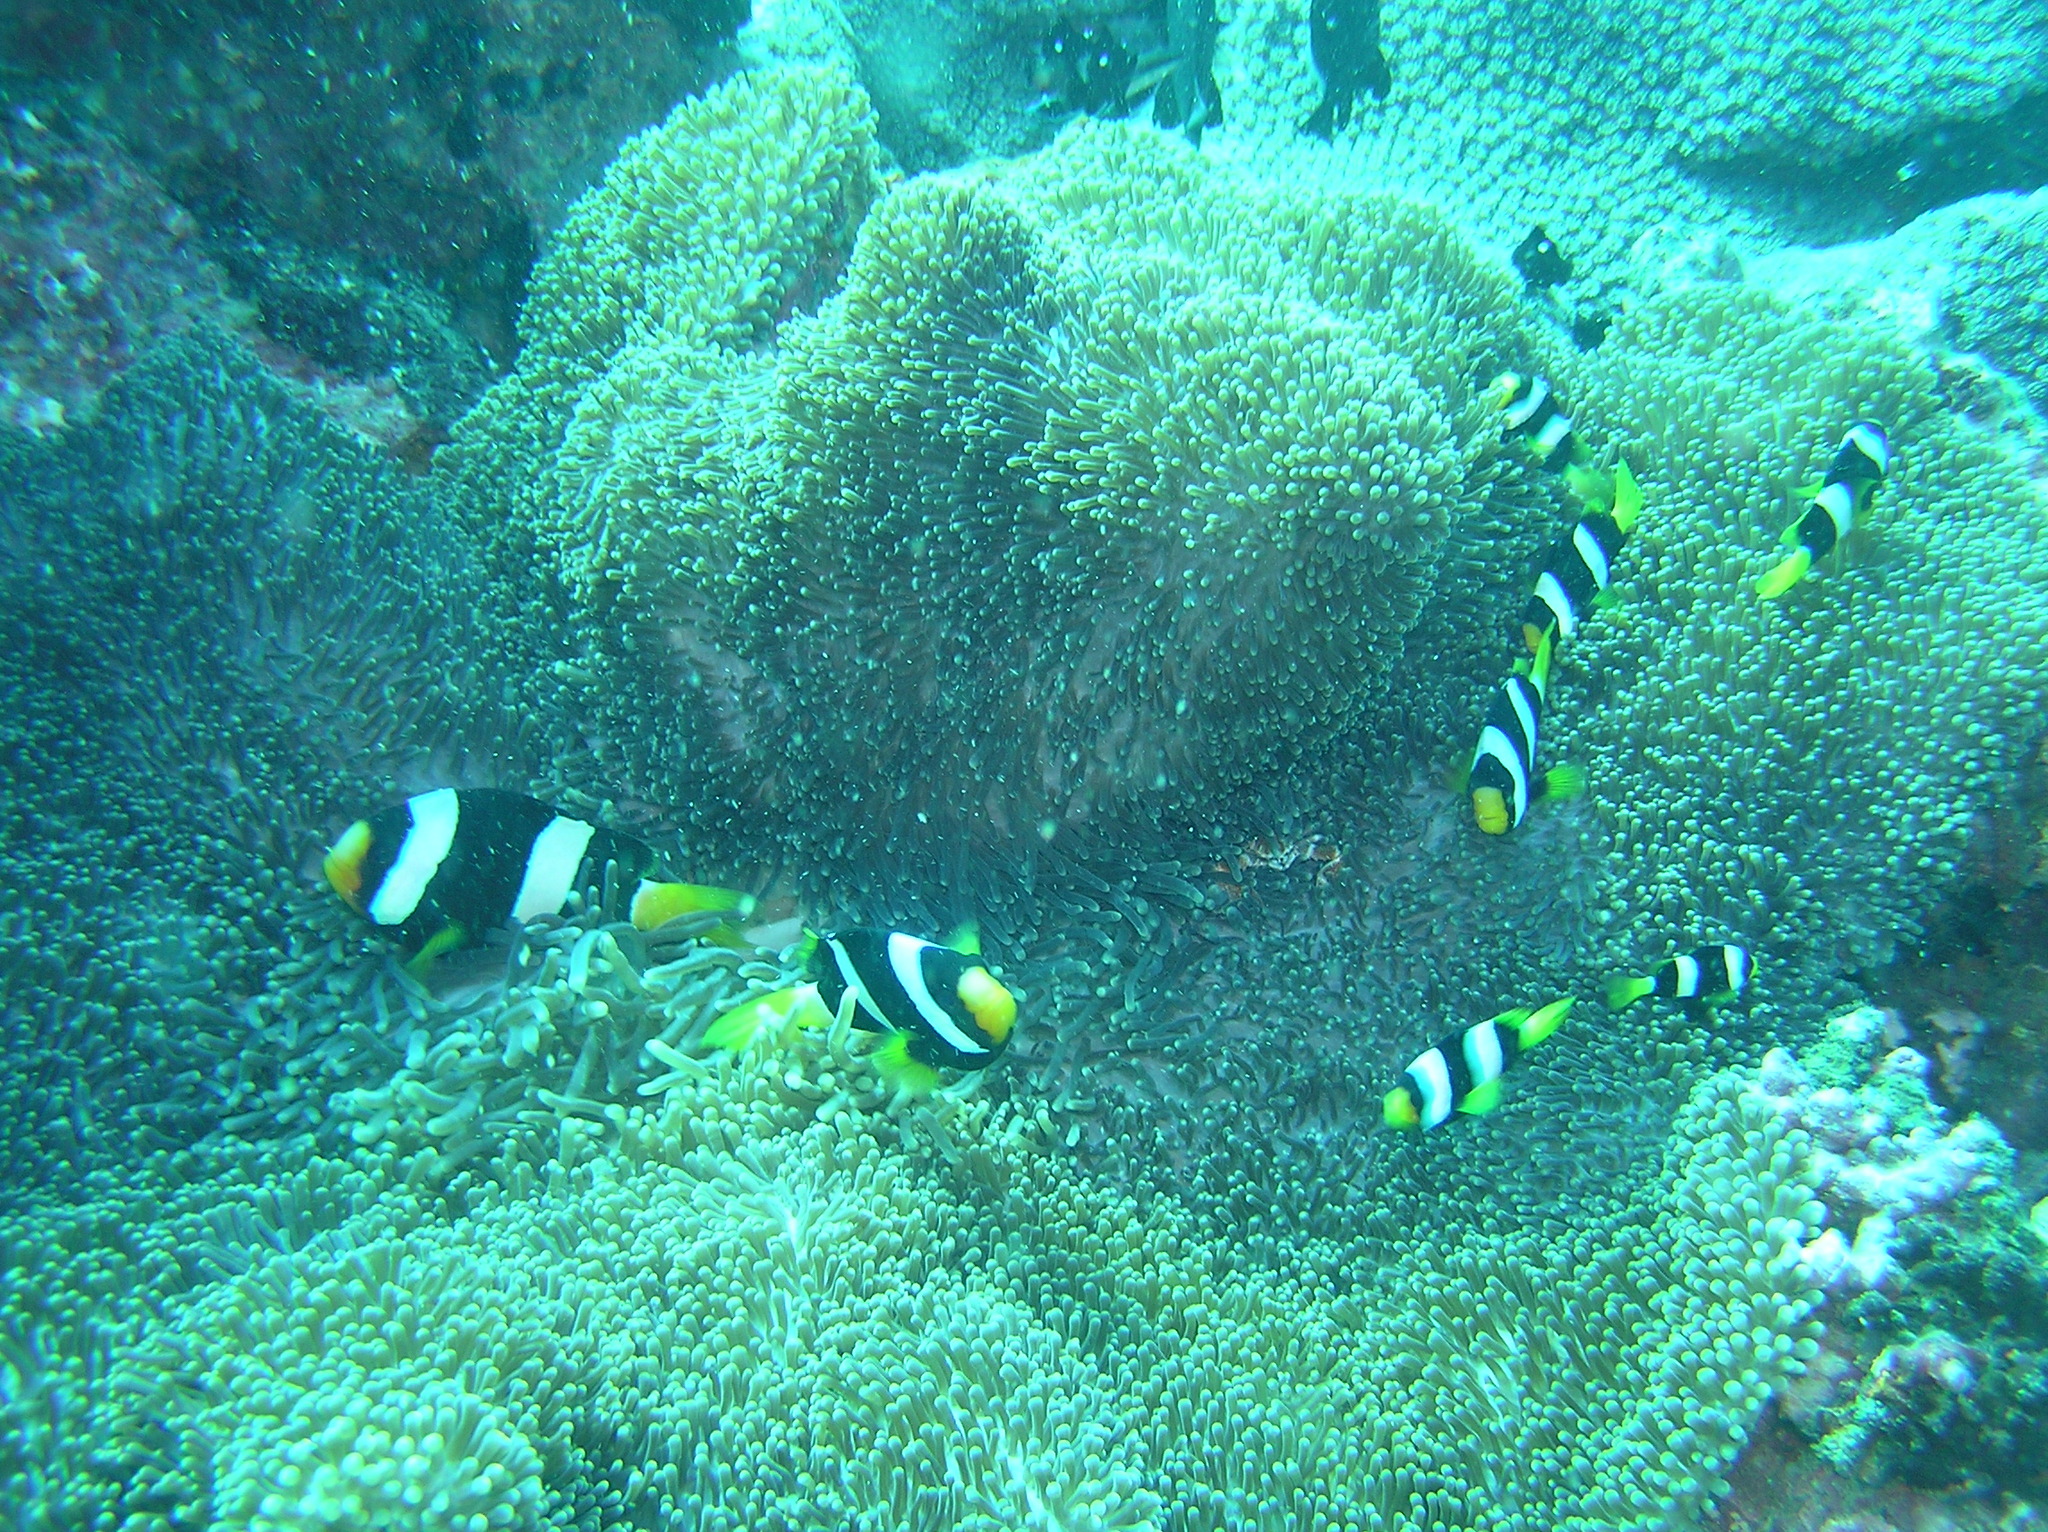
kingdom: Animalia
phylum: Chordata
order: Perciformes
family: Pomacentridae
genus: Amphiprion
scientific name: Amphiprion clarkii
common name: Clark's anemonefish
